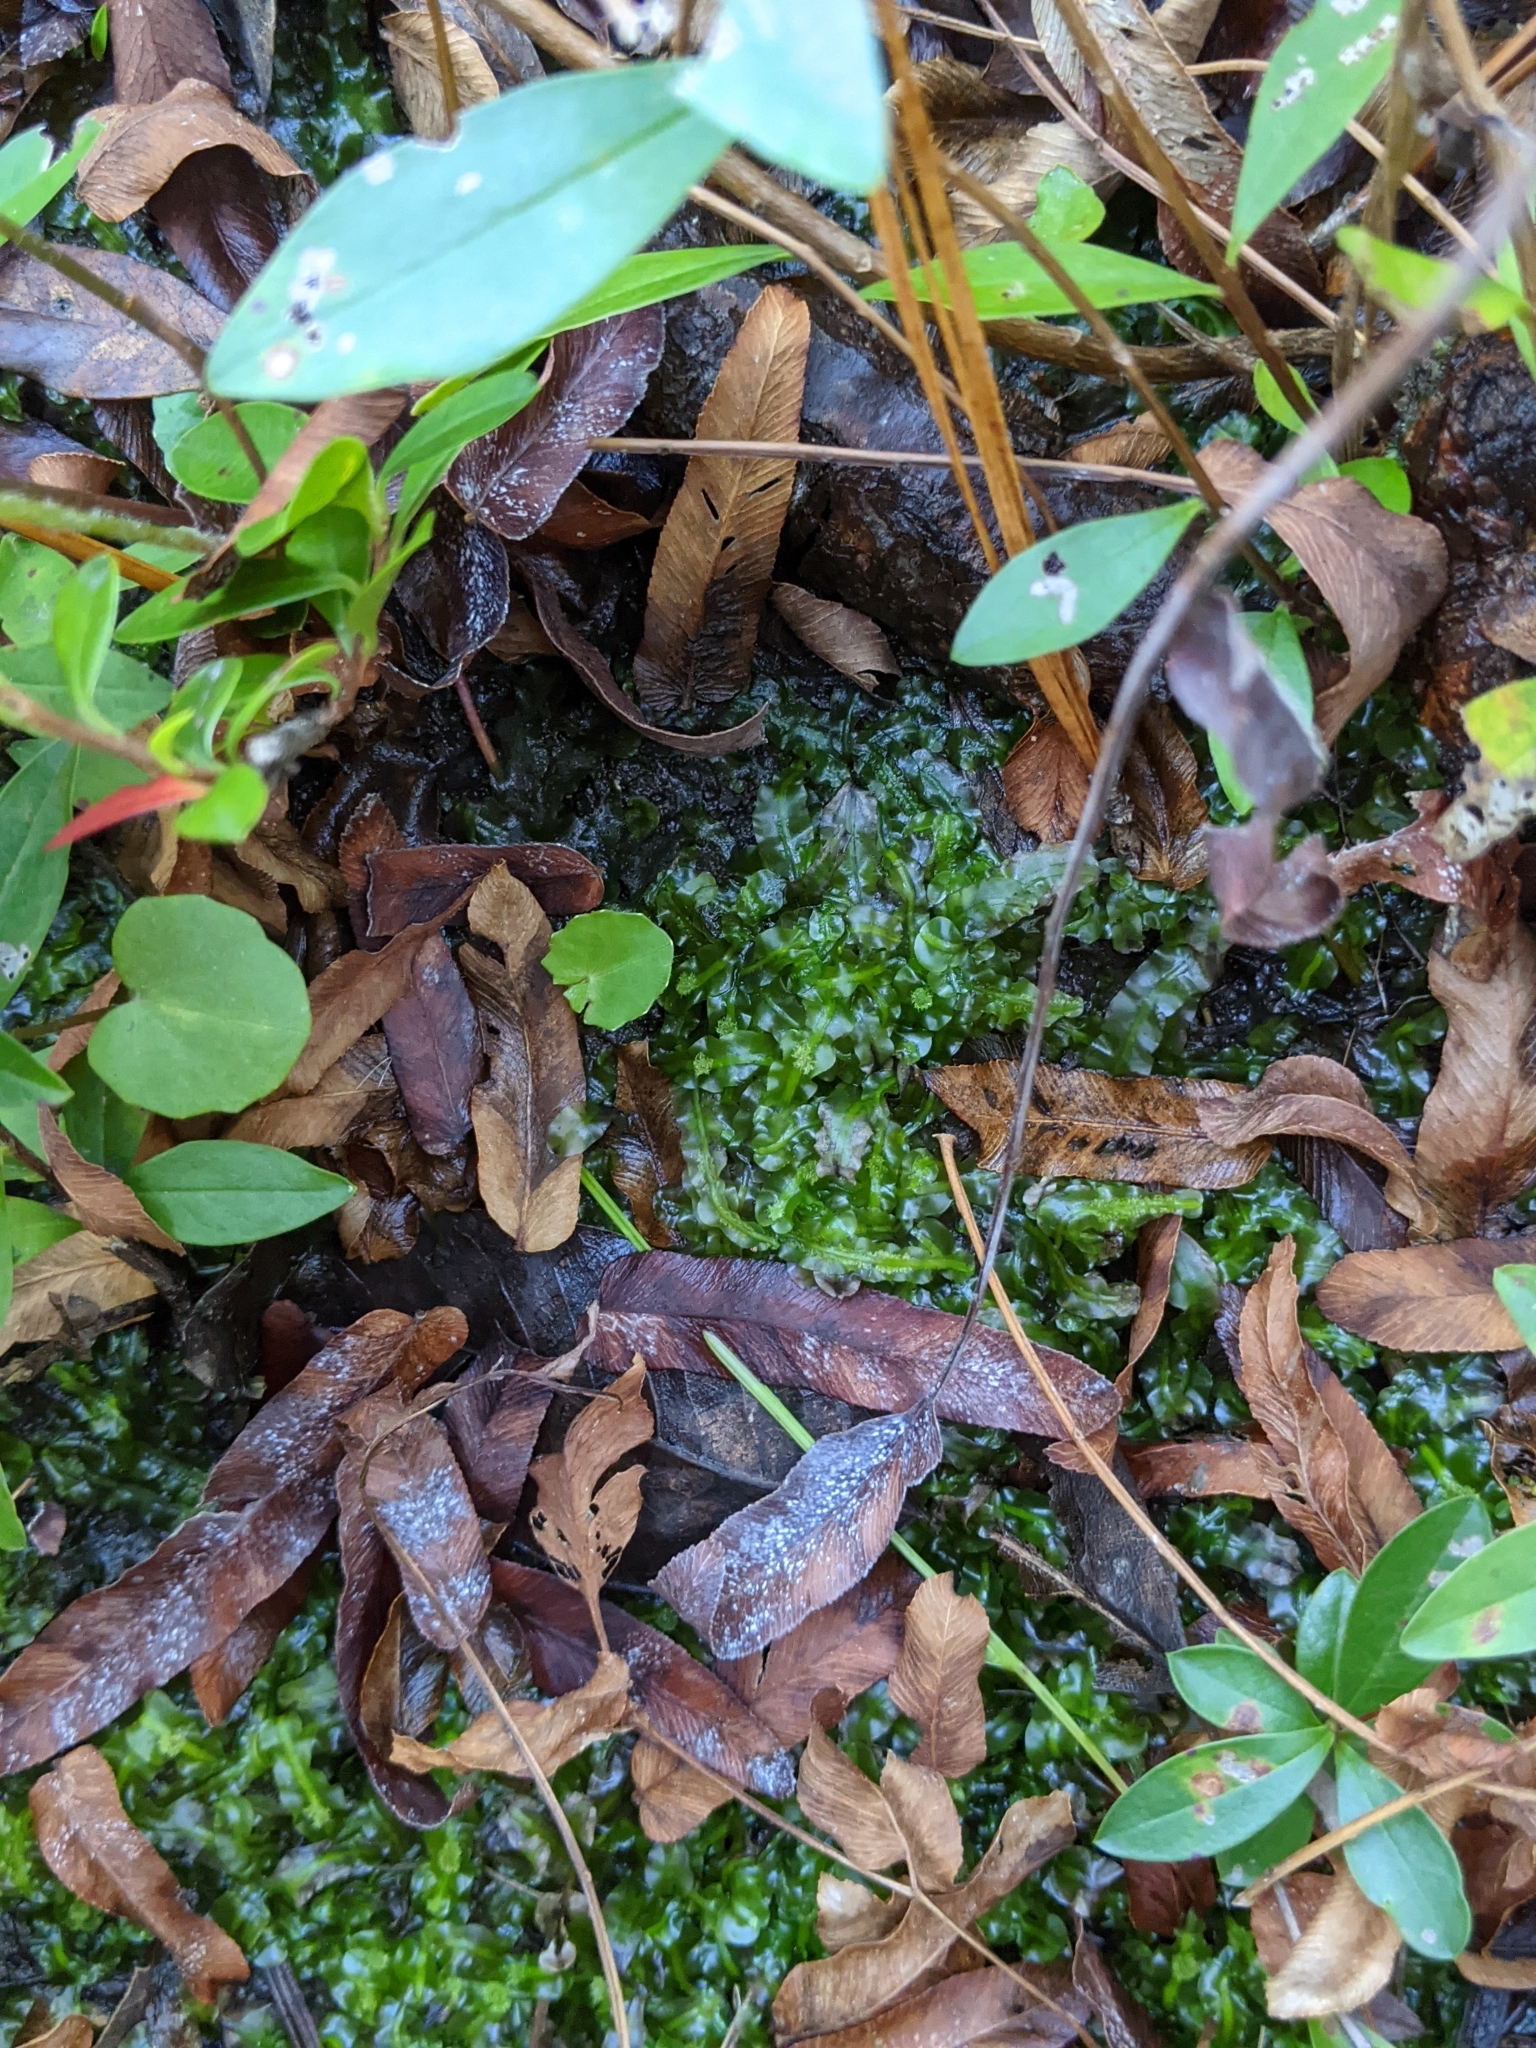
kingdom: Plantae
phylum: Marchantiophyta
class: Jungermanniopsida
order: Pallaviciniales
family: Pallaviciniaceae
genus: Pallavicinia
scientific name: Pallavicinia lyellii
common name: Veilwort
